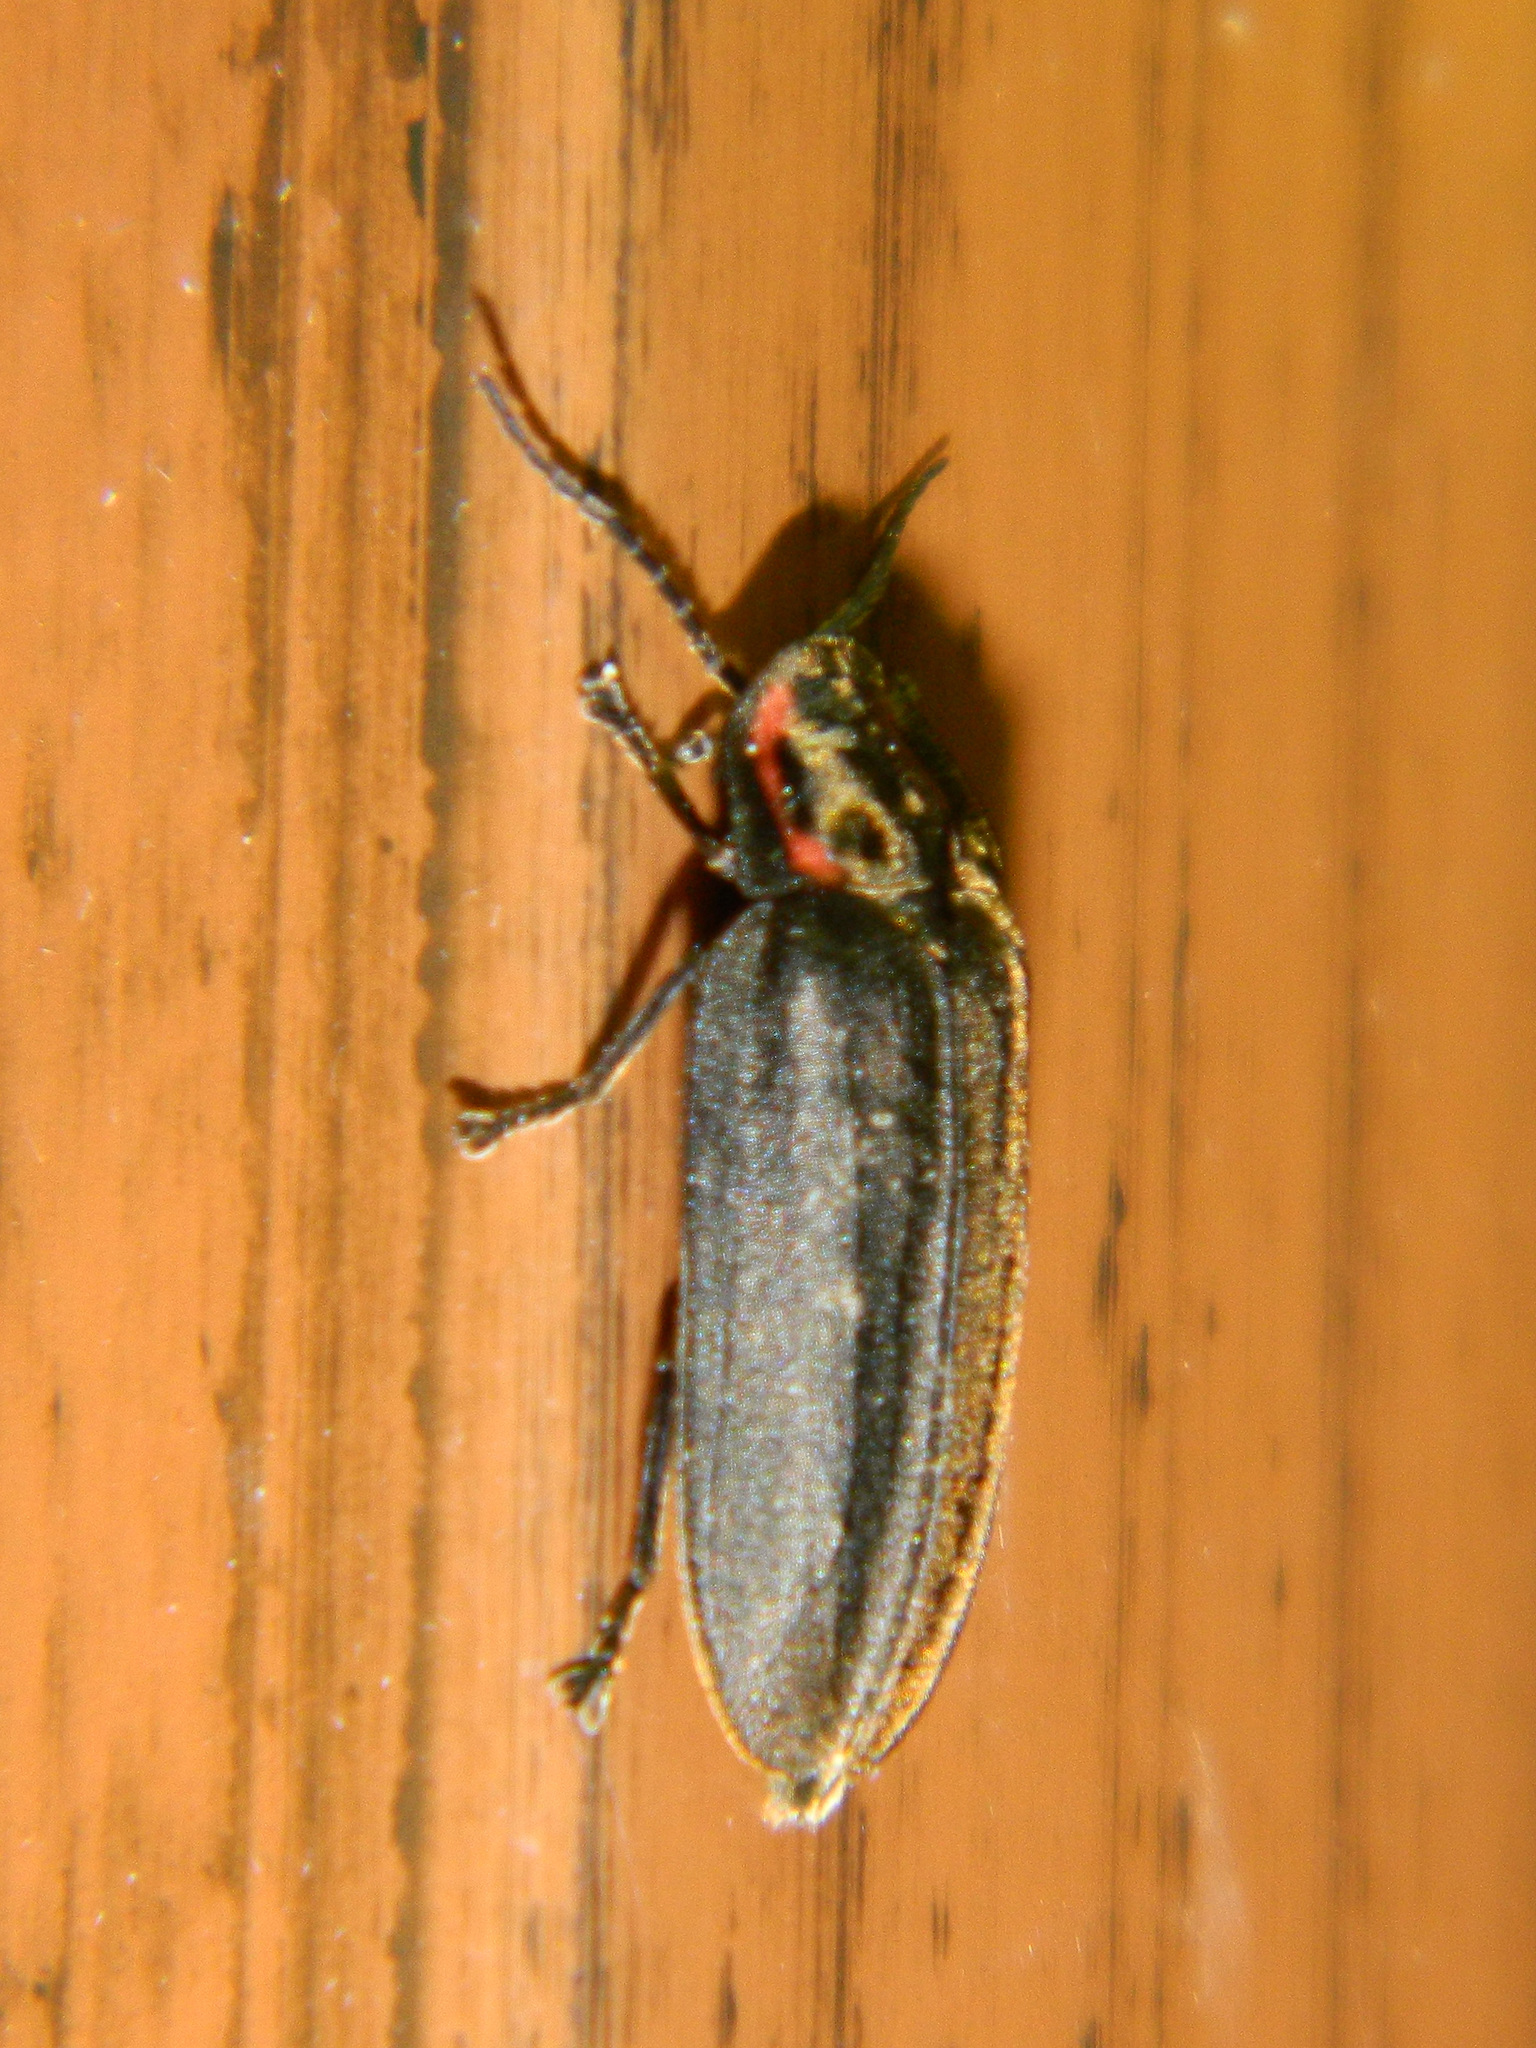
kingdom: Animalia
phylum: Arthropoda
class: Insecta
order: Coleoptera
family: Lampyridae
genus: Photinus
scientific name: Photinus corrusca
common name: Winter firefly
